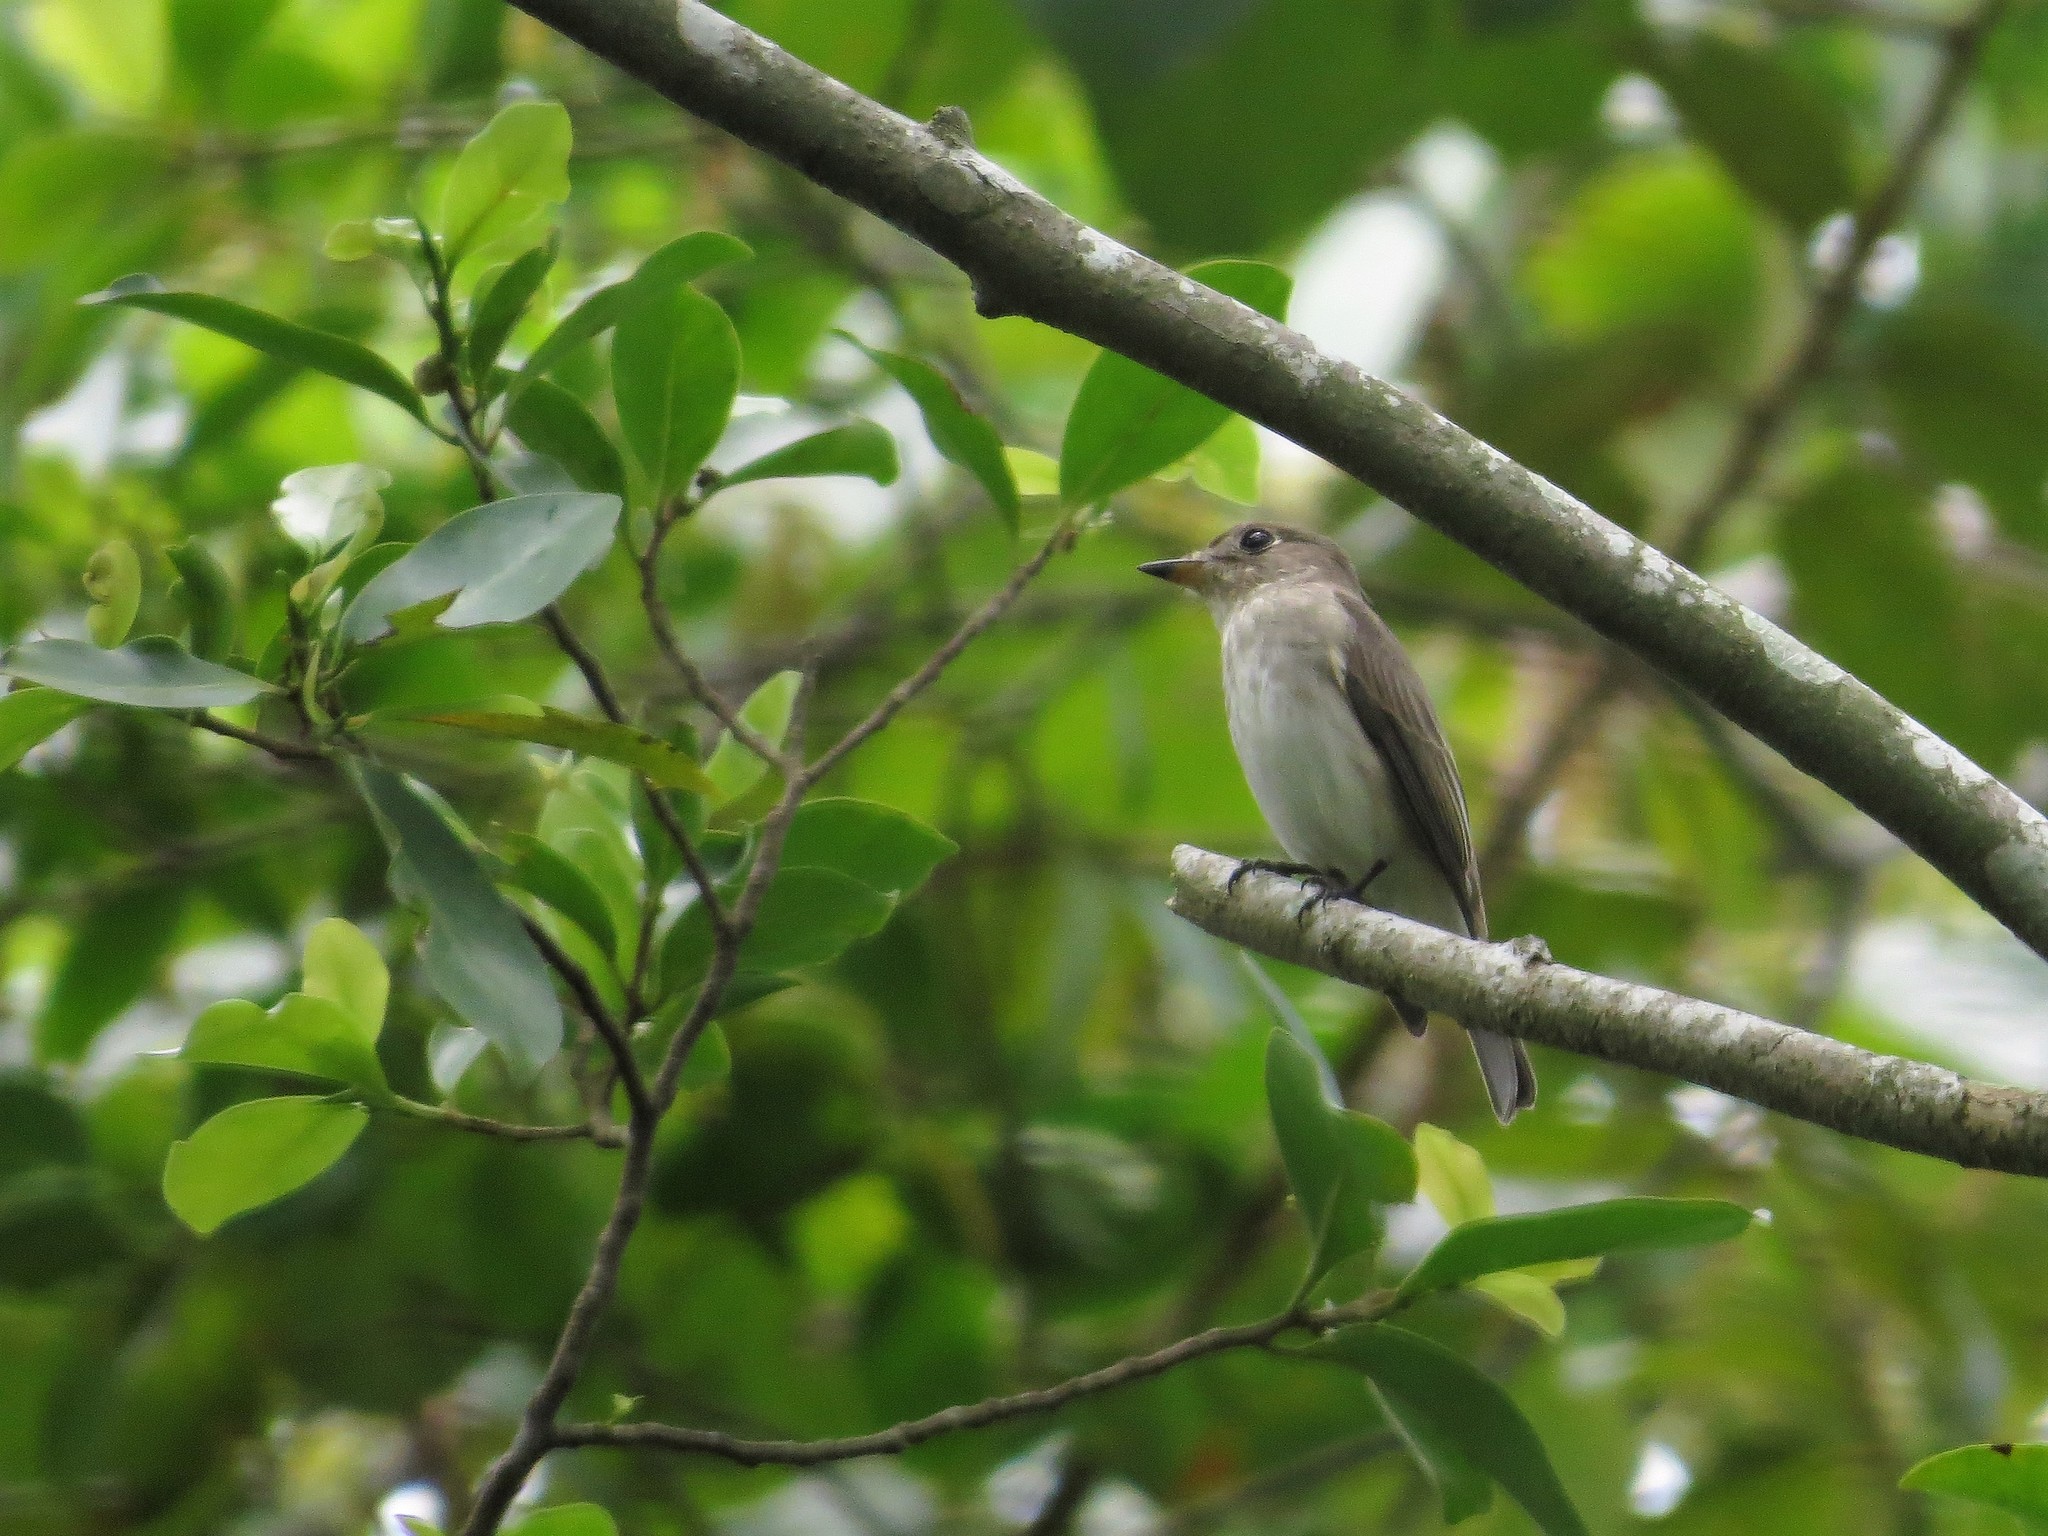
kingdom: Animalia
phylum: Chordata
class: Aves
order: Passeriformes
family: Muscicapidae
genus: Muscicapa
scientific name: Muscicapa latirostris
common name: Asian brown flycatcher
